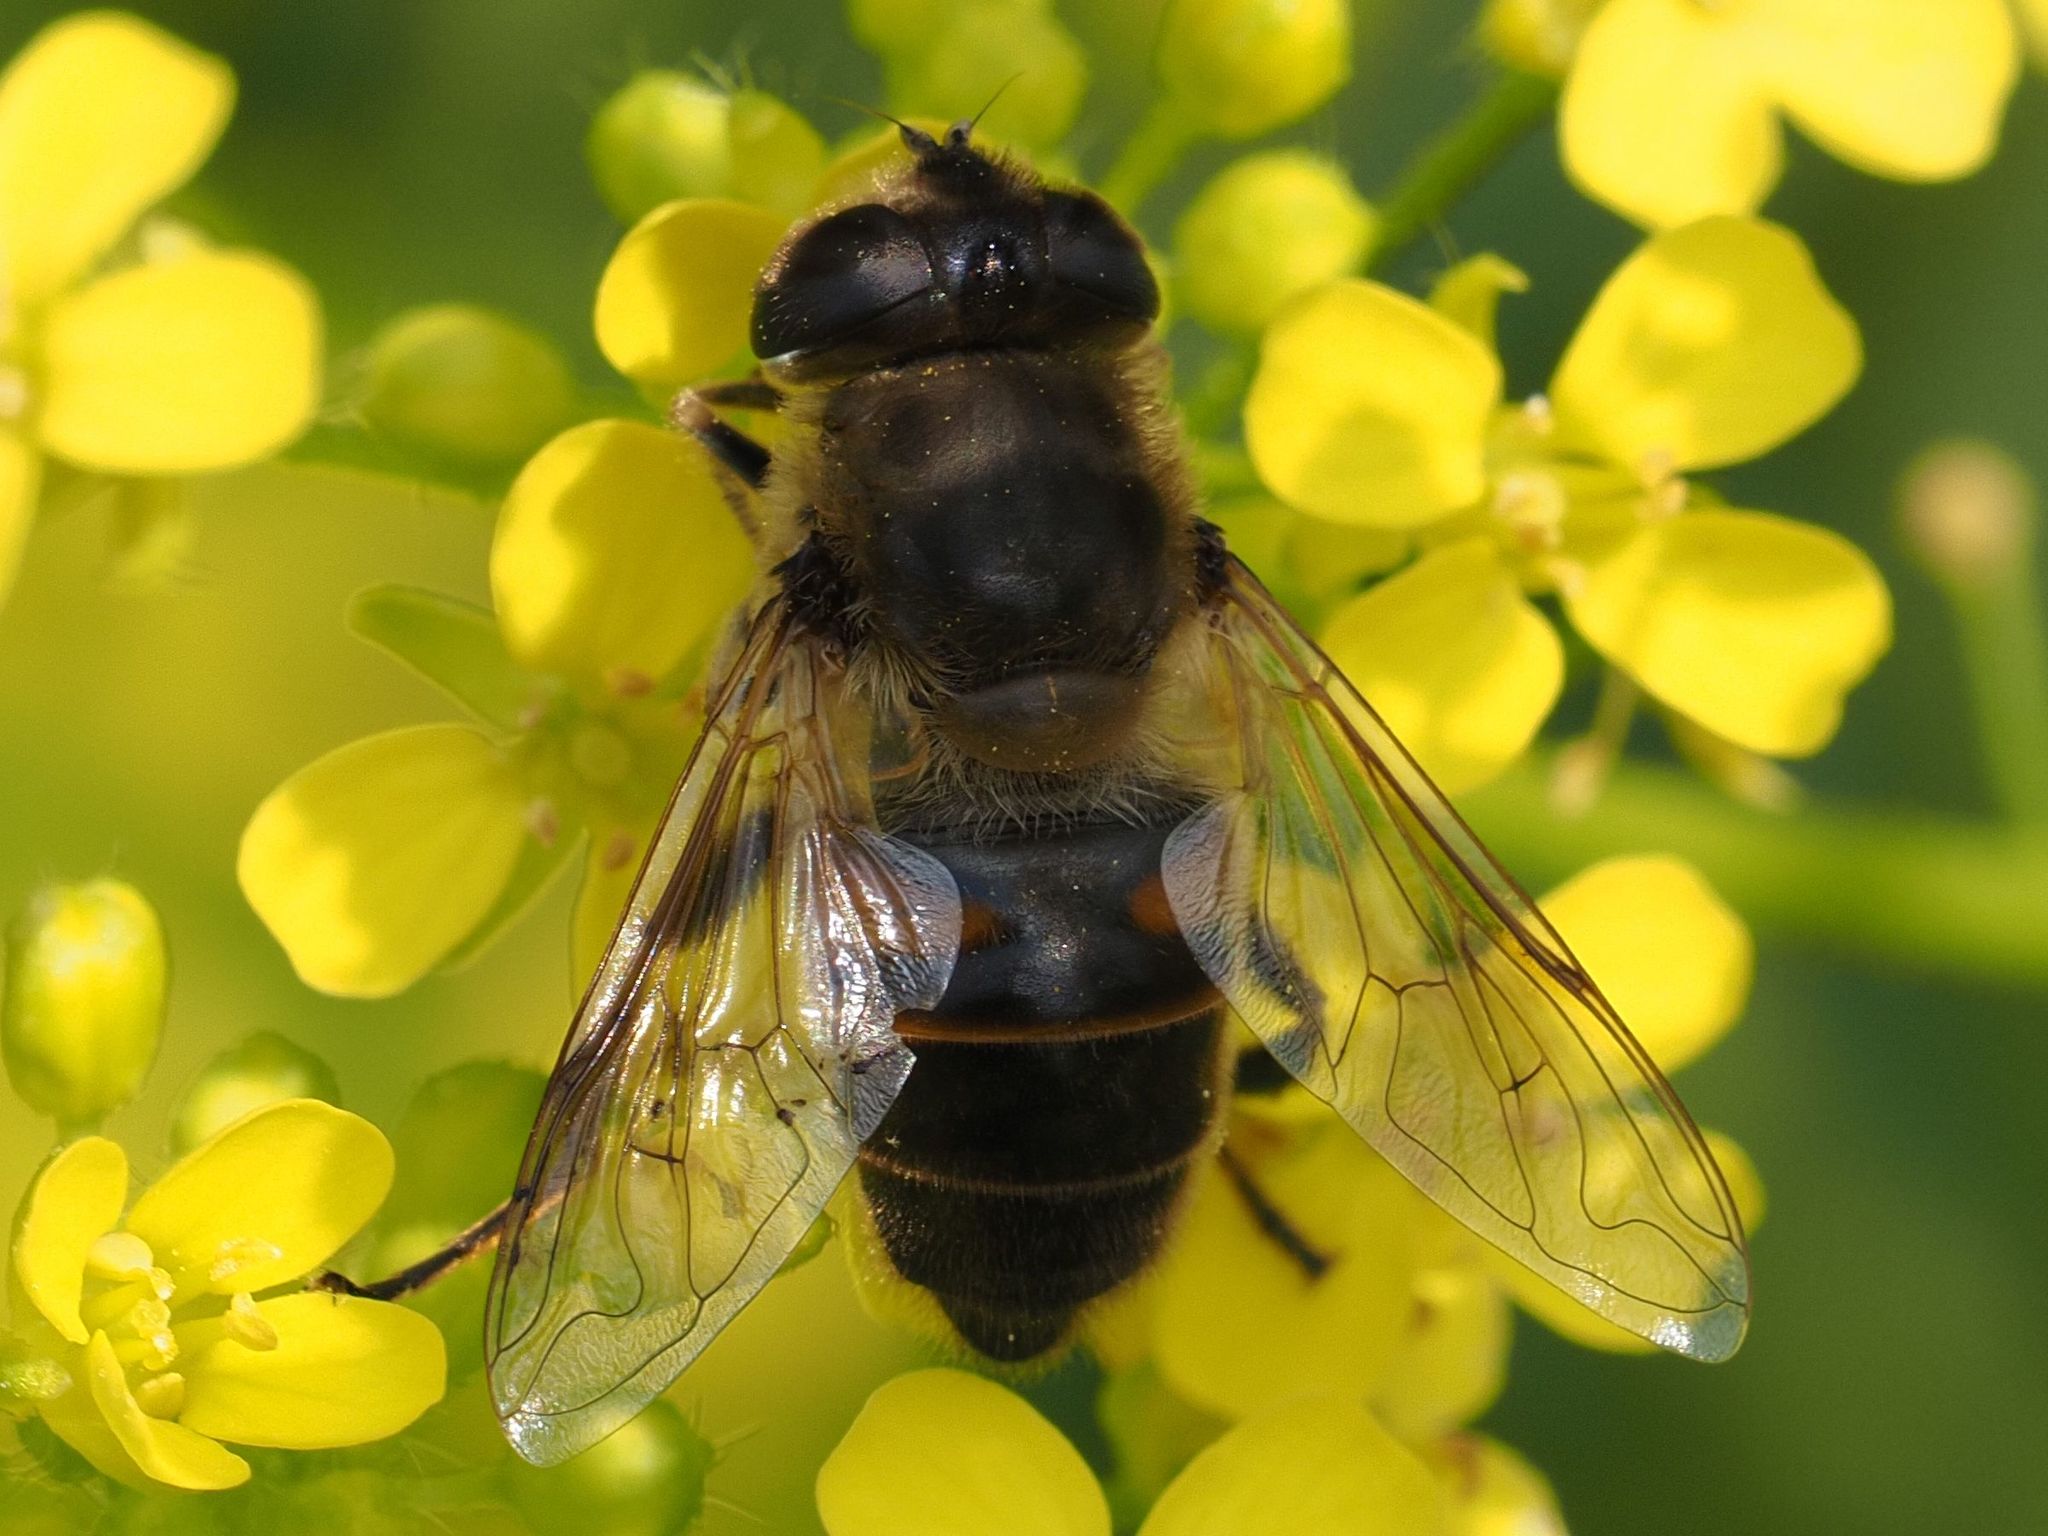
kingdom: Animalia
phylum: Arthropoda
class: Insecta
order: Diptera
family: Syrphidae
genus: Eristalis
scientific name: Eristalis tenax
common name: Drone fly
